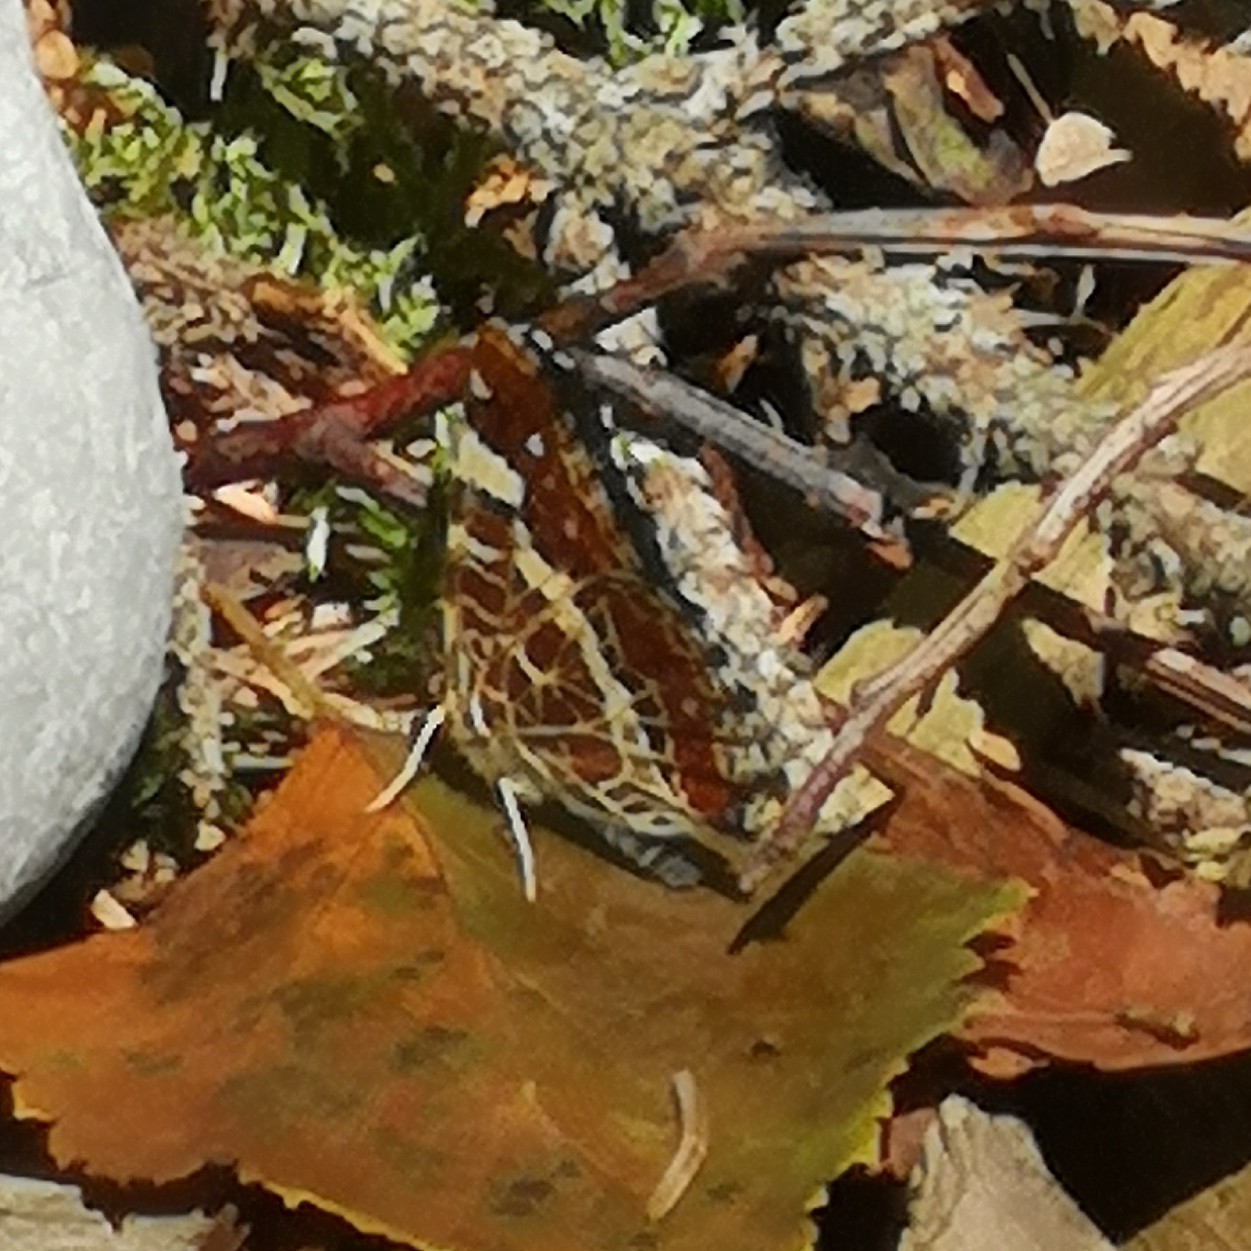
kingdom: Animalia
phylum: Arthropoda
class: Insecta
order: Lepidoptera
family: Nymphalidae
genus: Araschnia
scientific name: Araschnia levana
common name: Map butterfly
